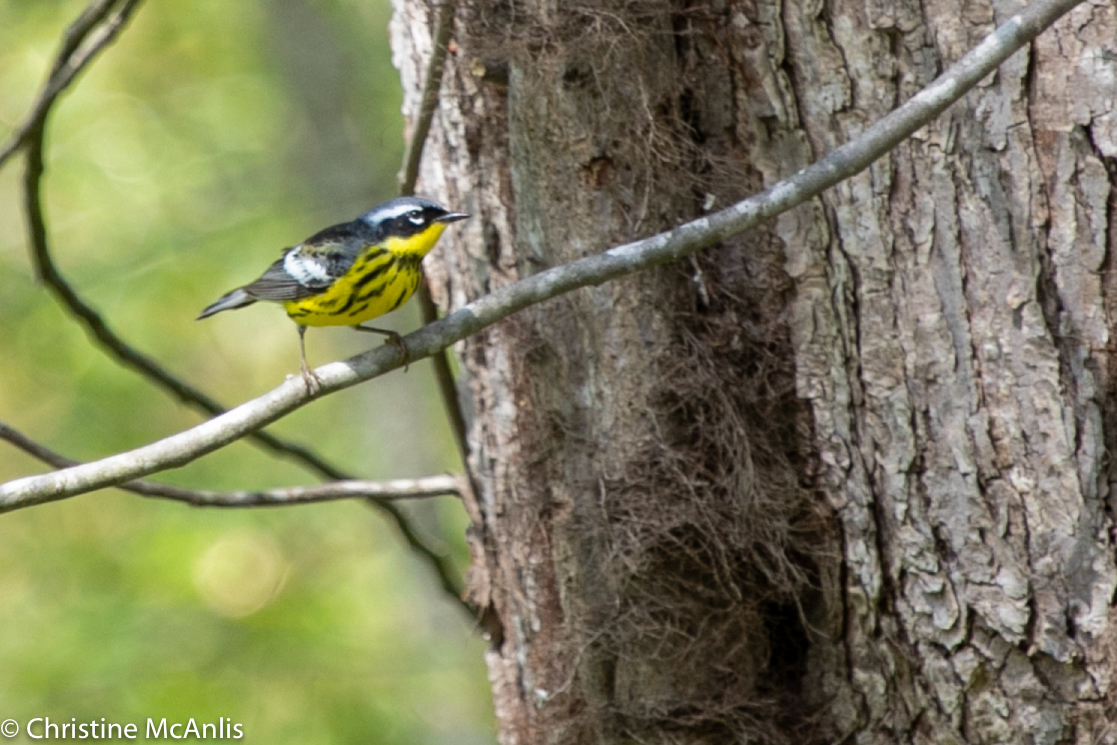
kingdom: Animalia
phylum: Chordata
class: Aves
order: Passeriformes
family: Parulidae
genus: Setophaga
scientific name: Setophaga magnolia
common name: Magnolia warbler
